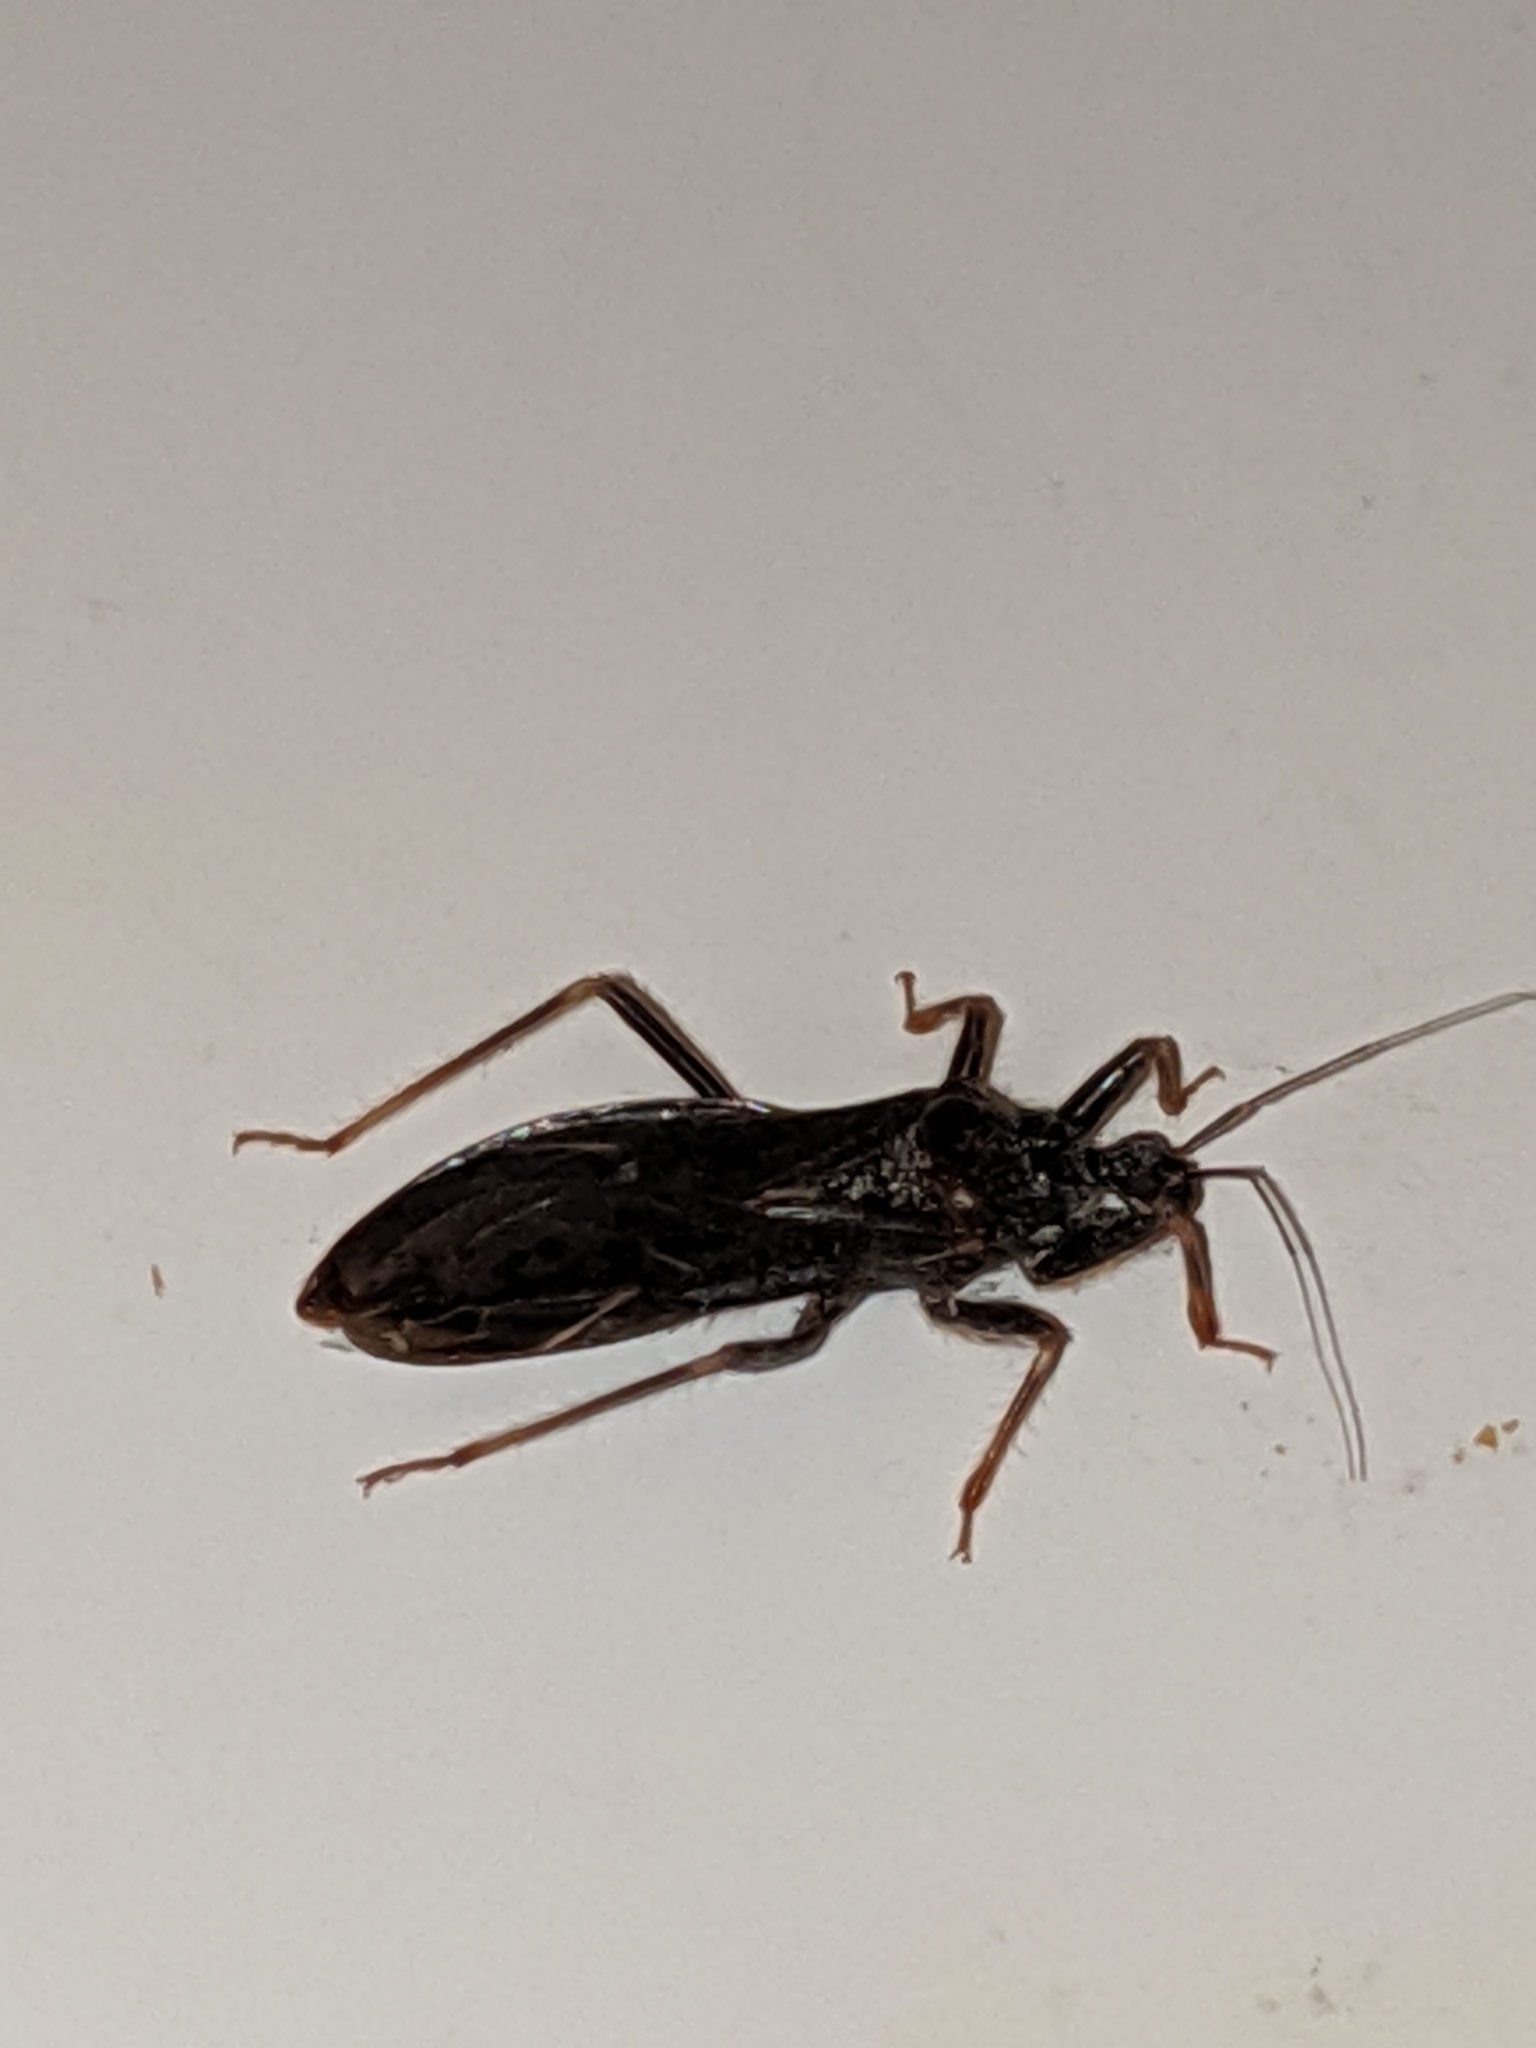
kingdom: Animalia
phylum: Arthropoda
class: Insecta
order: Hemiptera
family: Reduviidae
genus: Reduvius
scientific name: Reduvius personatus
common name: Masked hunter
